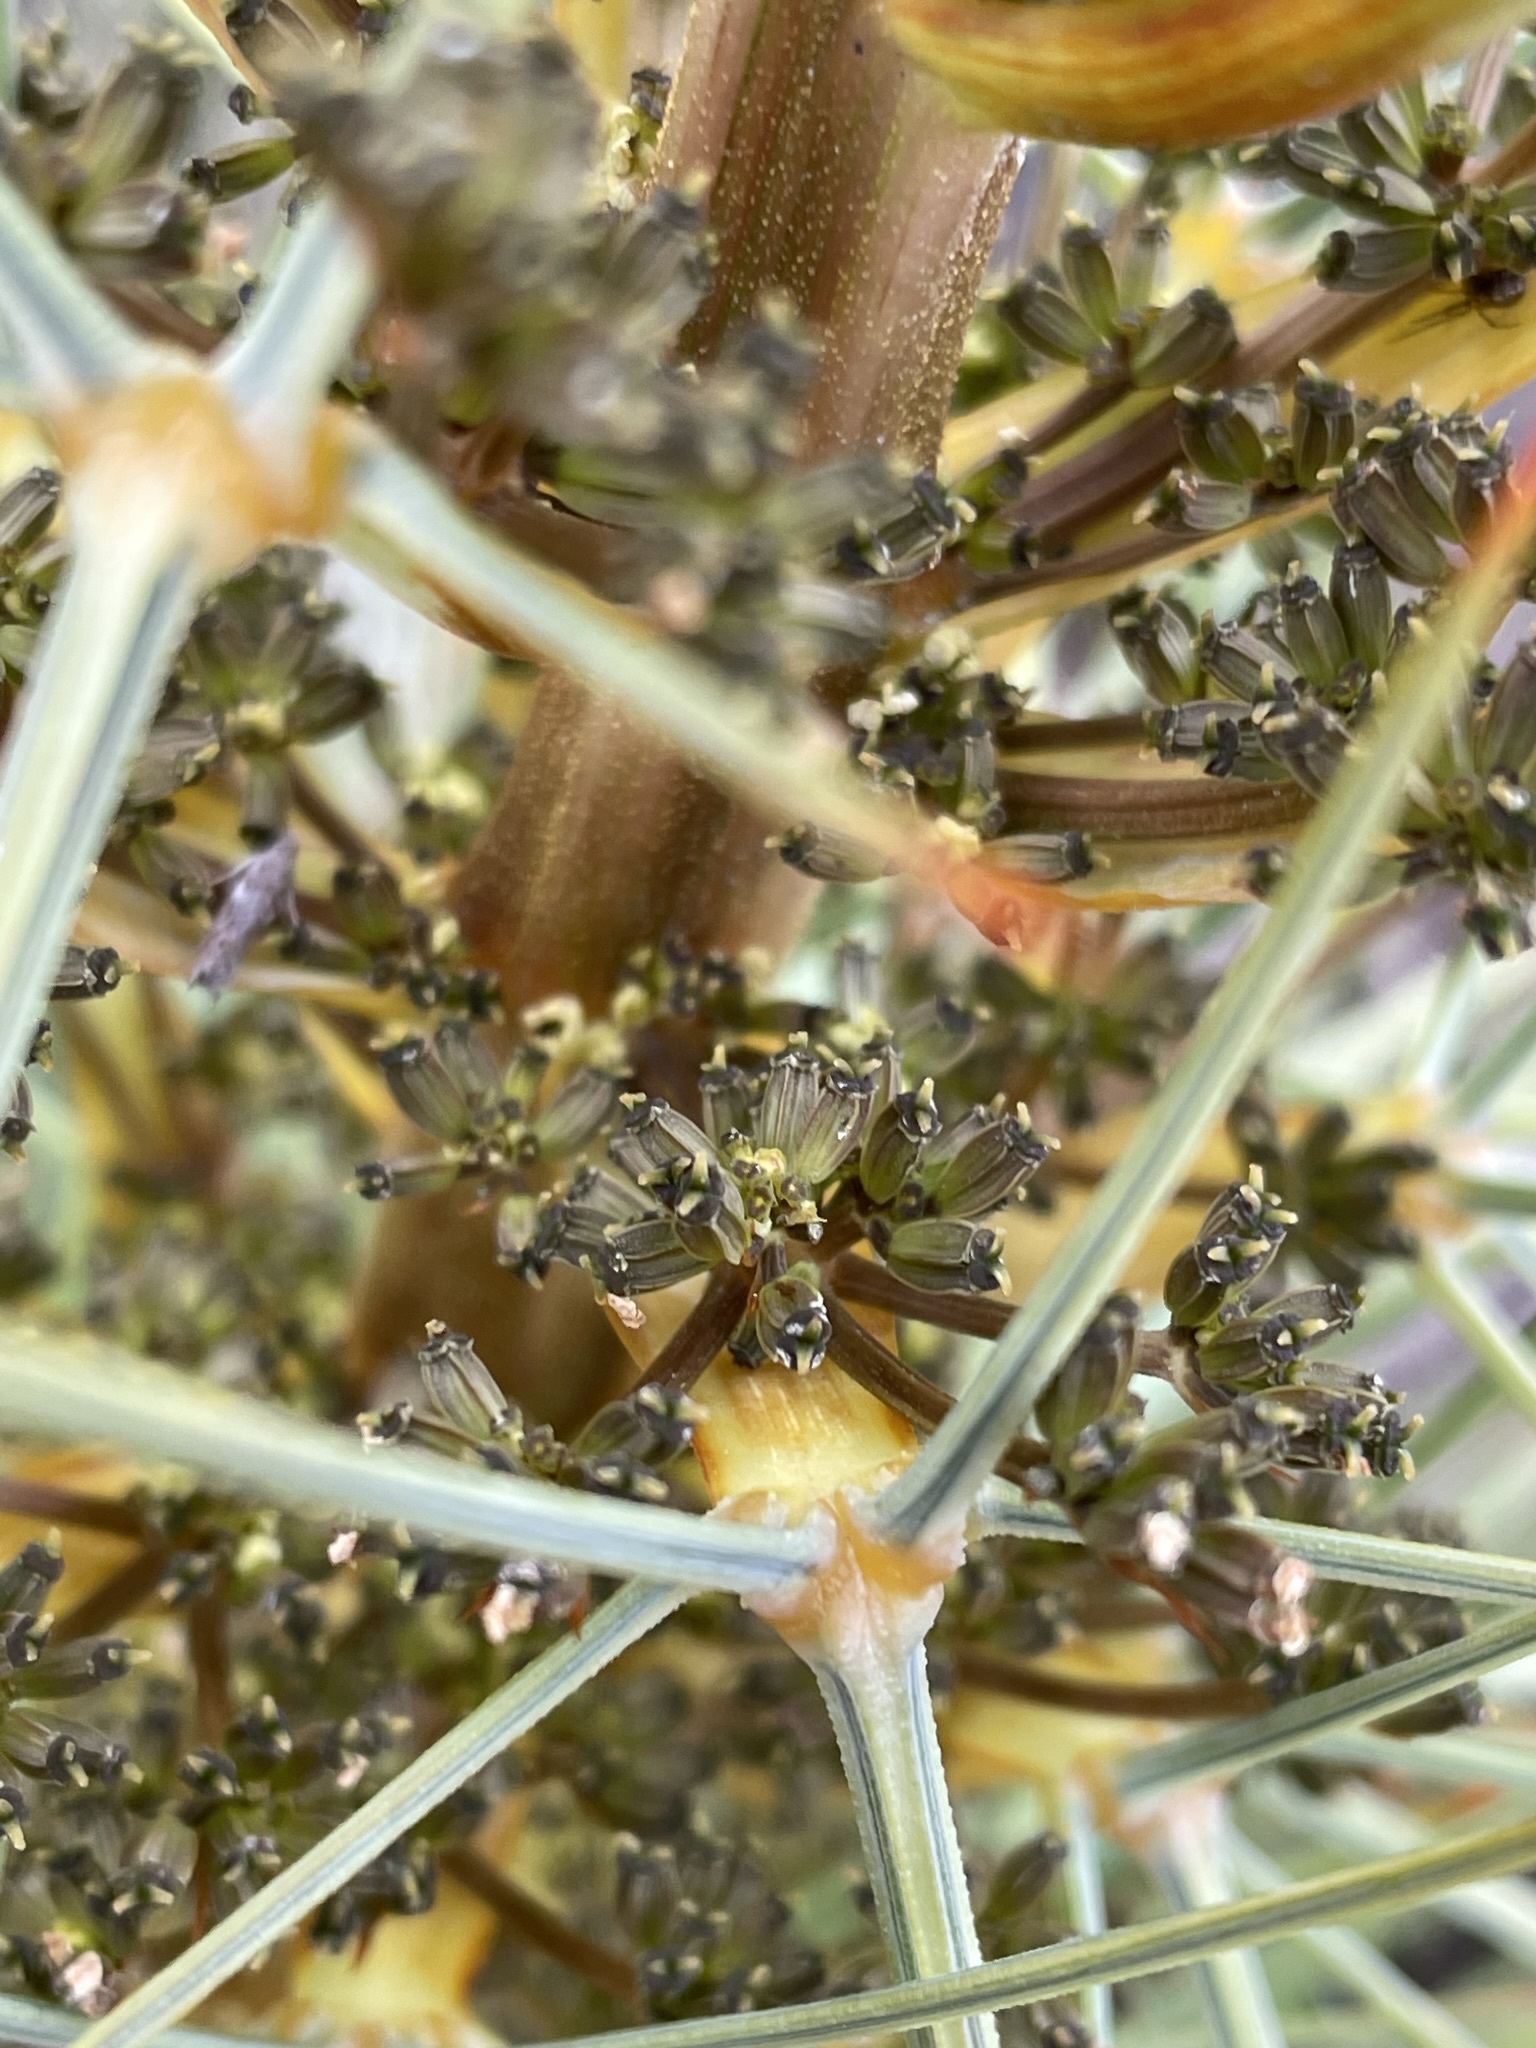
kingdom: Plantae
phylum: Tracheophyta
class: Magnoliopsida
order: Apiales
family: Apiaceae
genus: Aciphylla
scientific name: Aciphylla squarrosa
